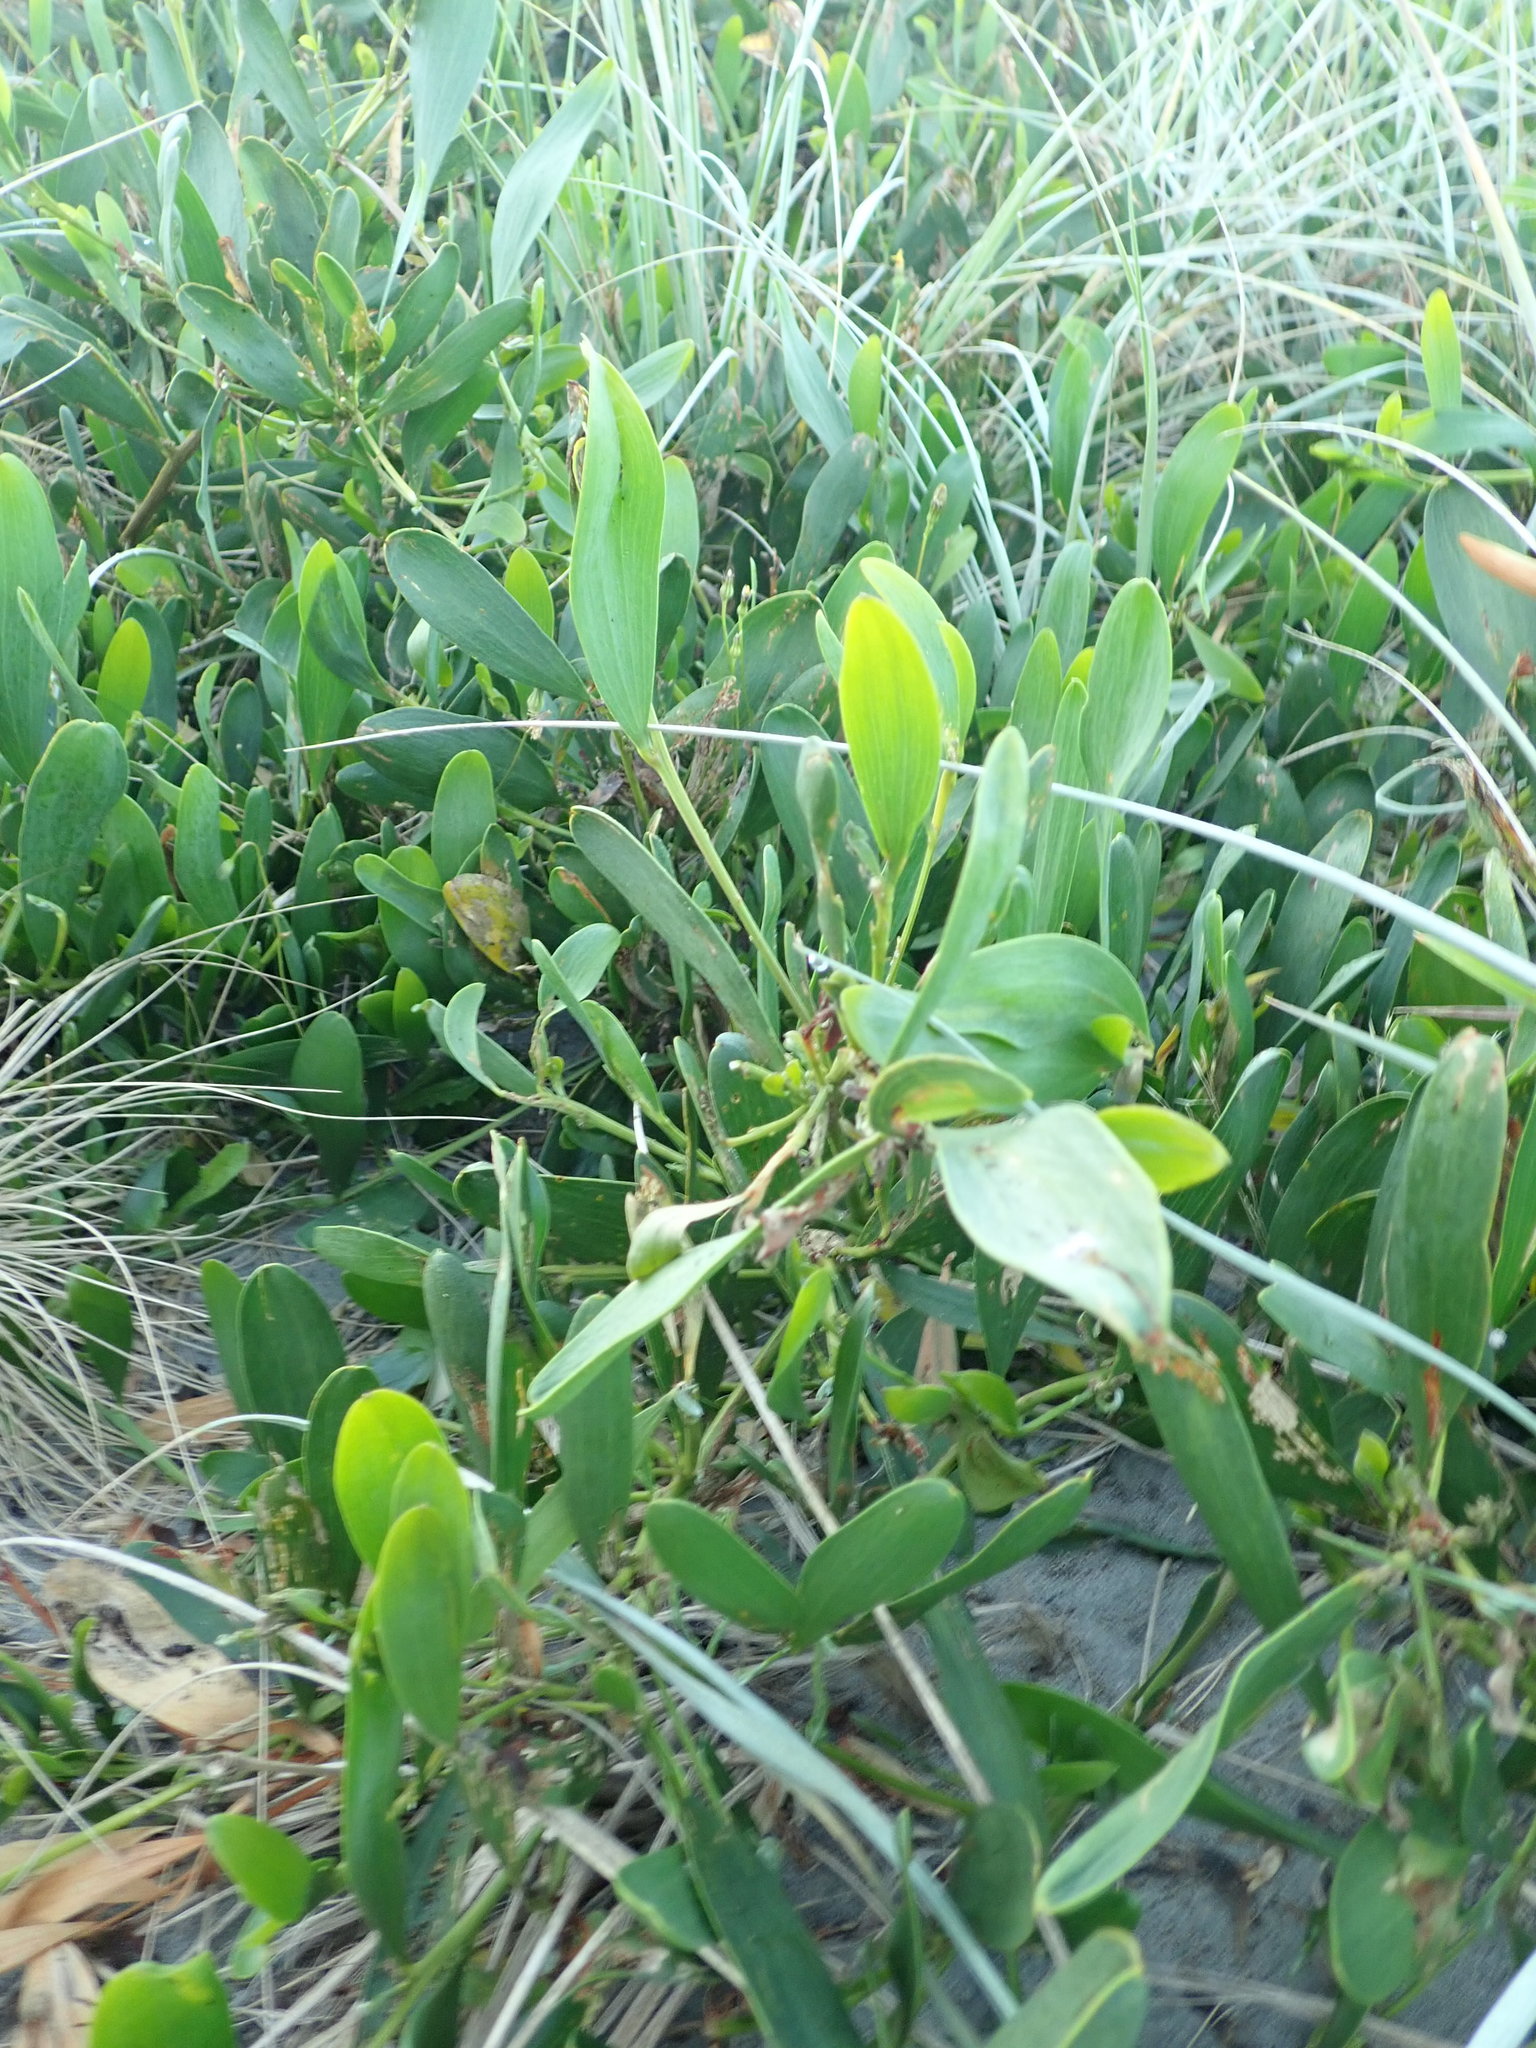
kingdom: Plantae
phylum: Tracheophyta
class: Magnoliopsida
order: Fabales
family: Fabaceae
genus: Acacia
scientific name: Acacia longifolia
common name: Sydney golden wattle
